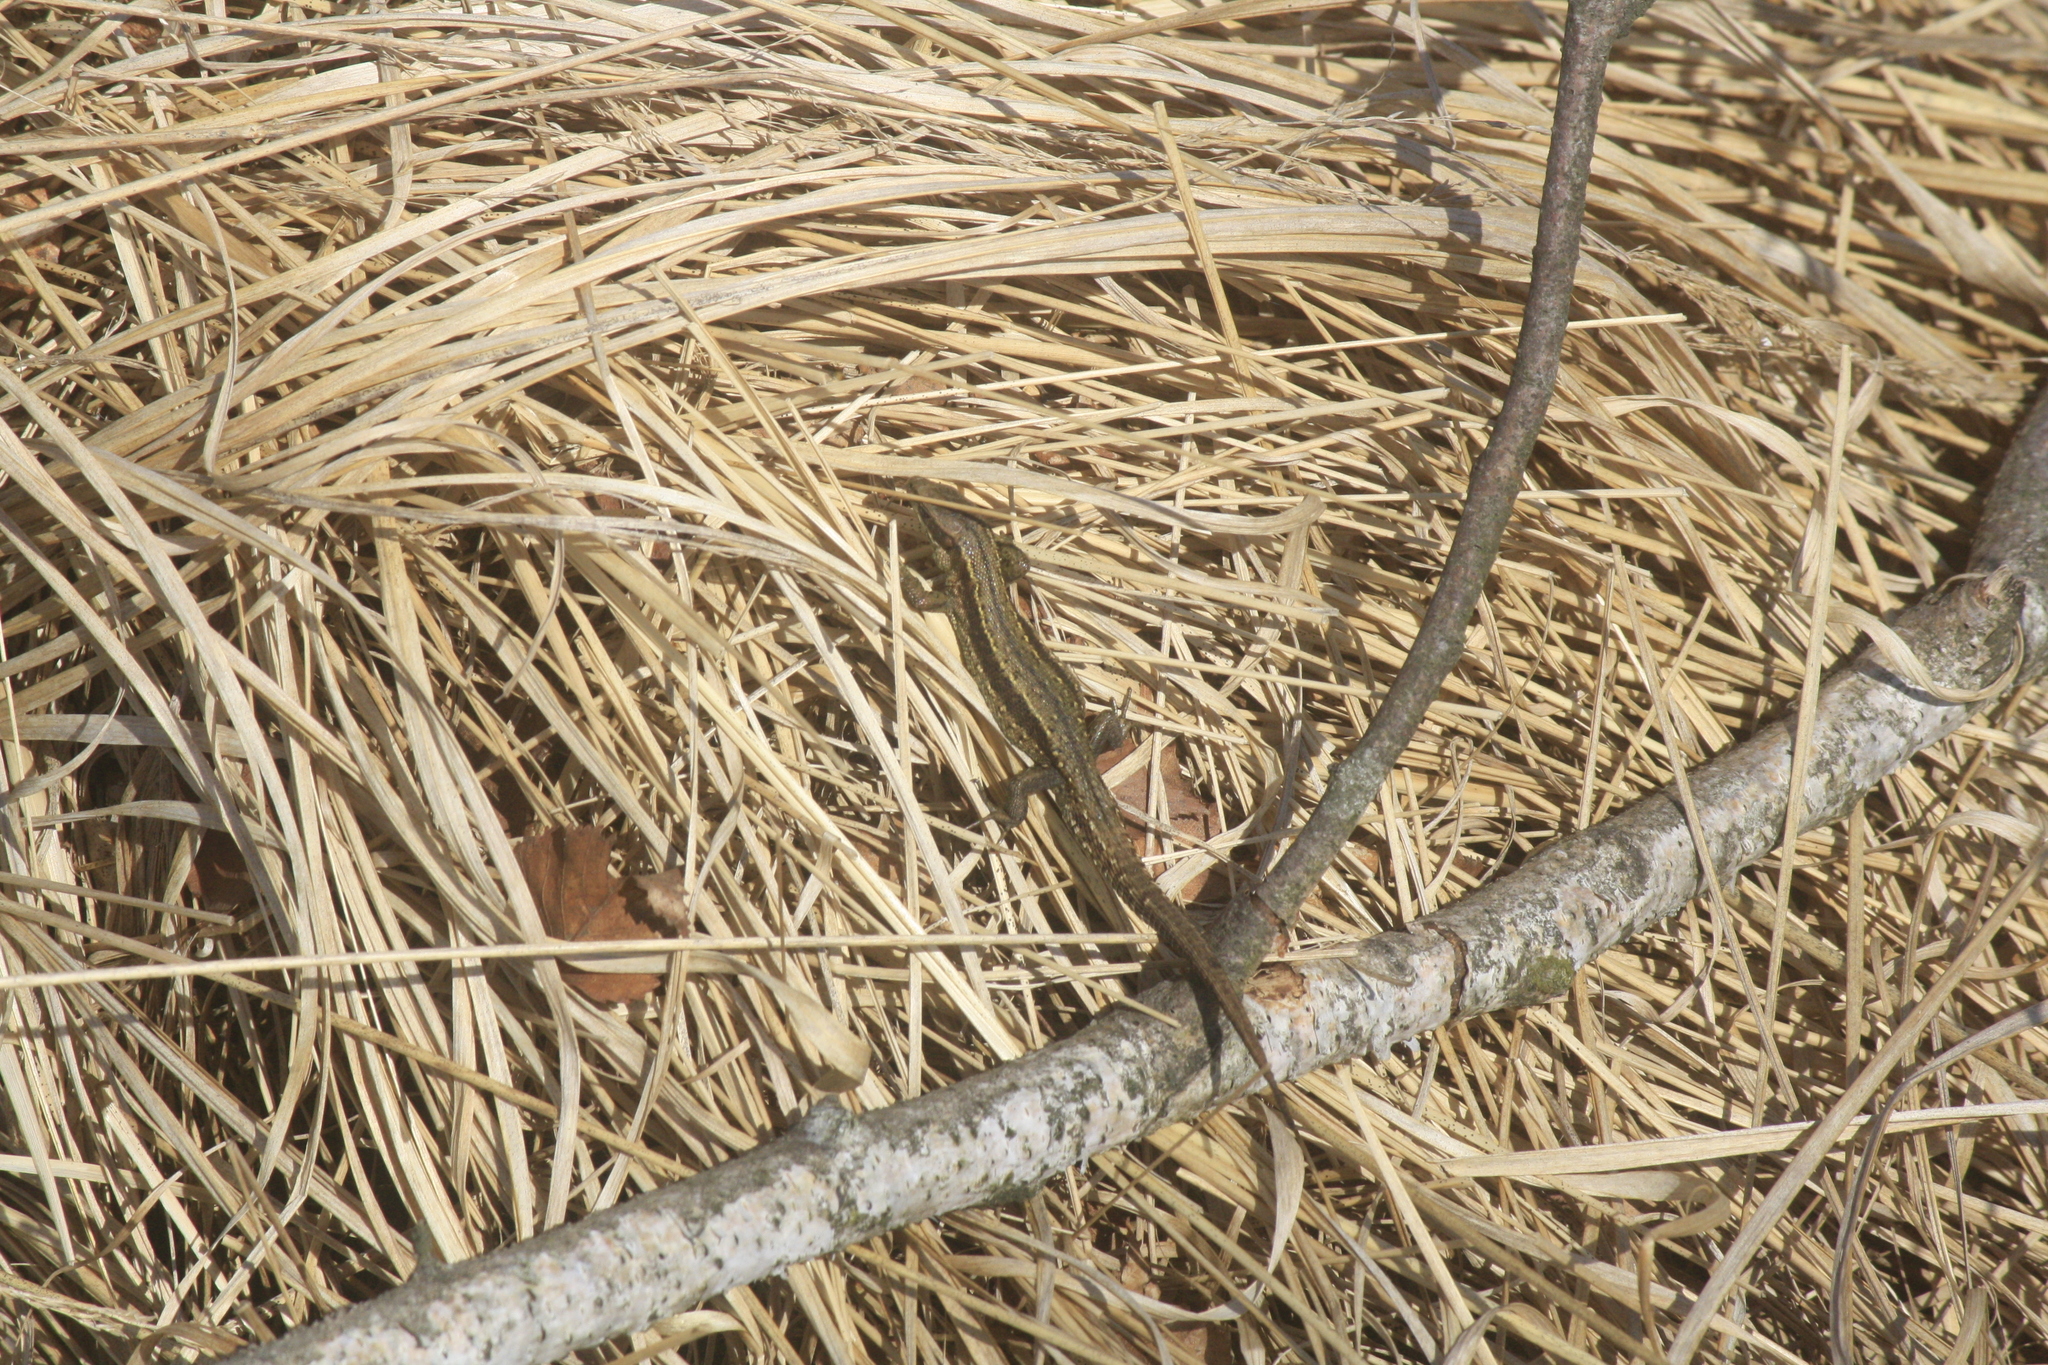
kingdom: Animalia
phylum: Chordata
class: Squamata
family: Lacertidae
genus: Zootoca
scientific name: Zootoca vivipara
